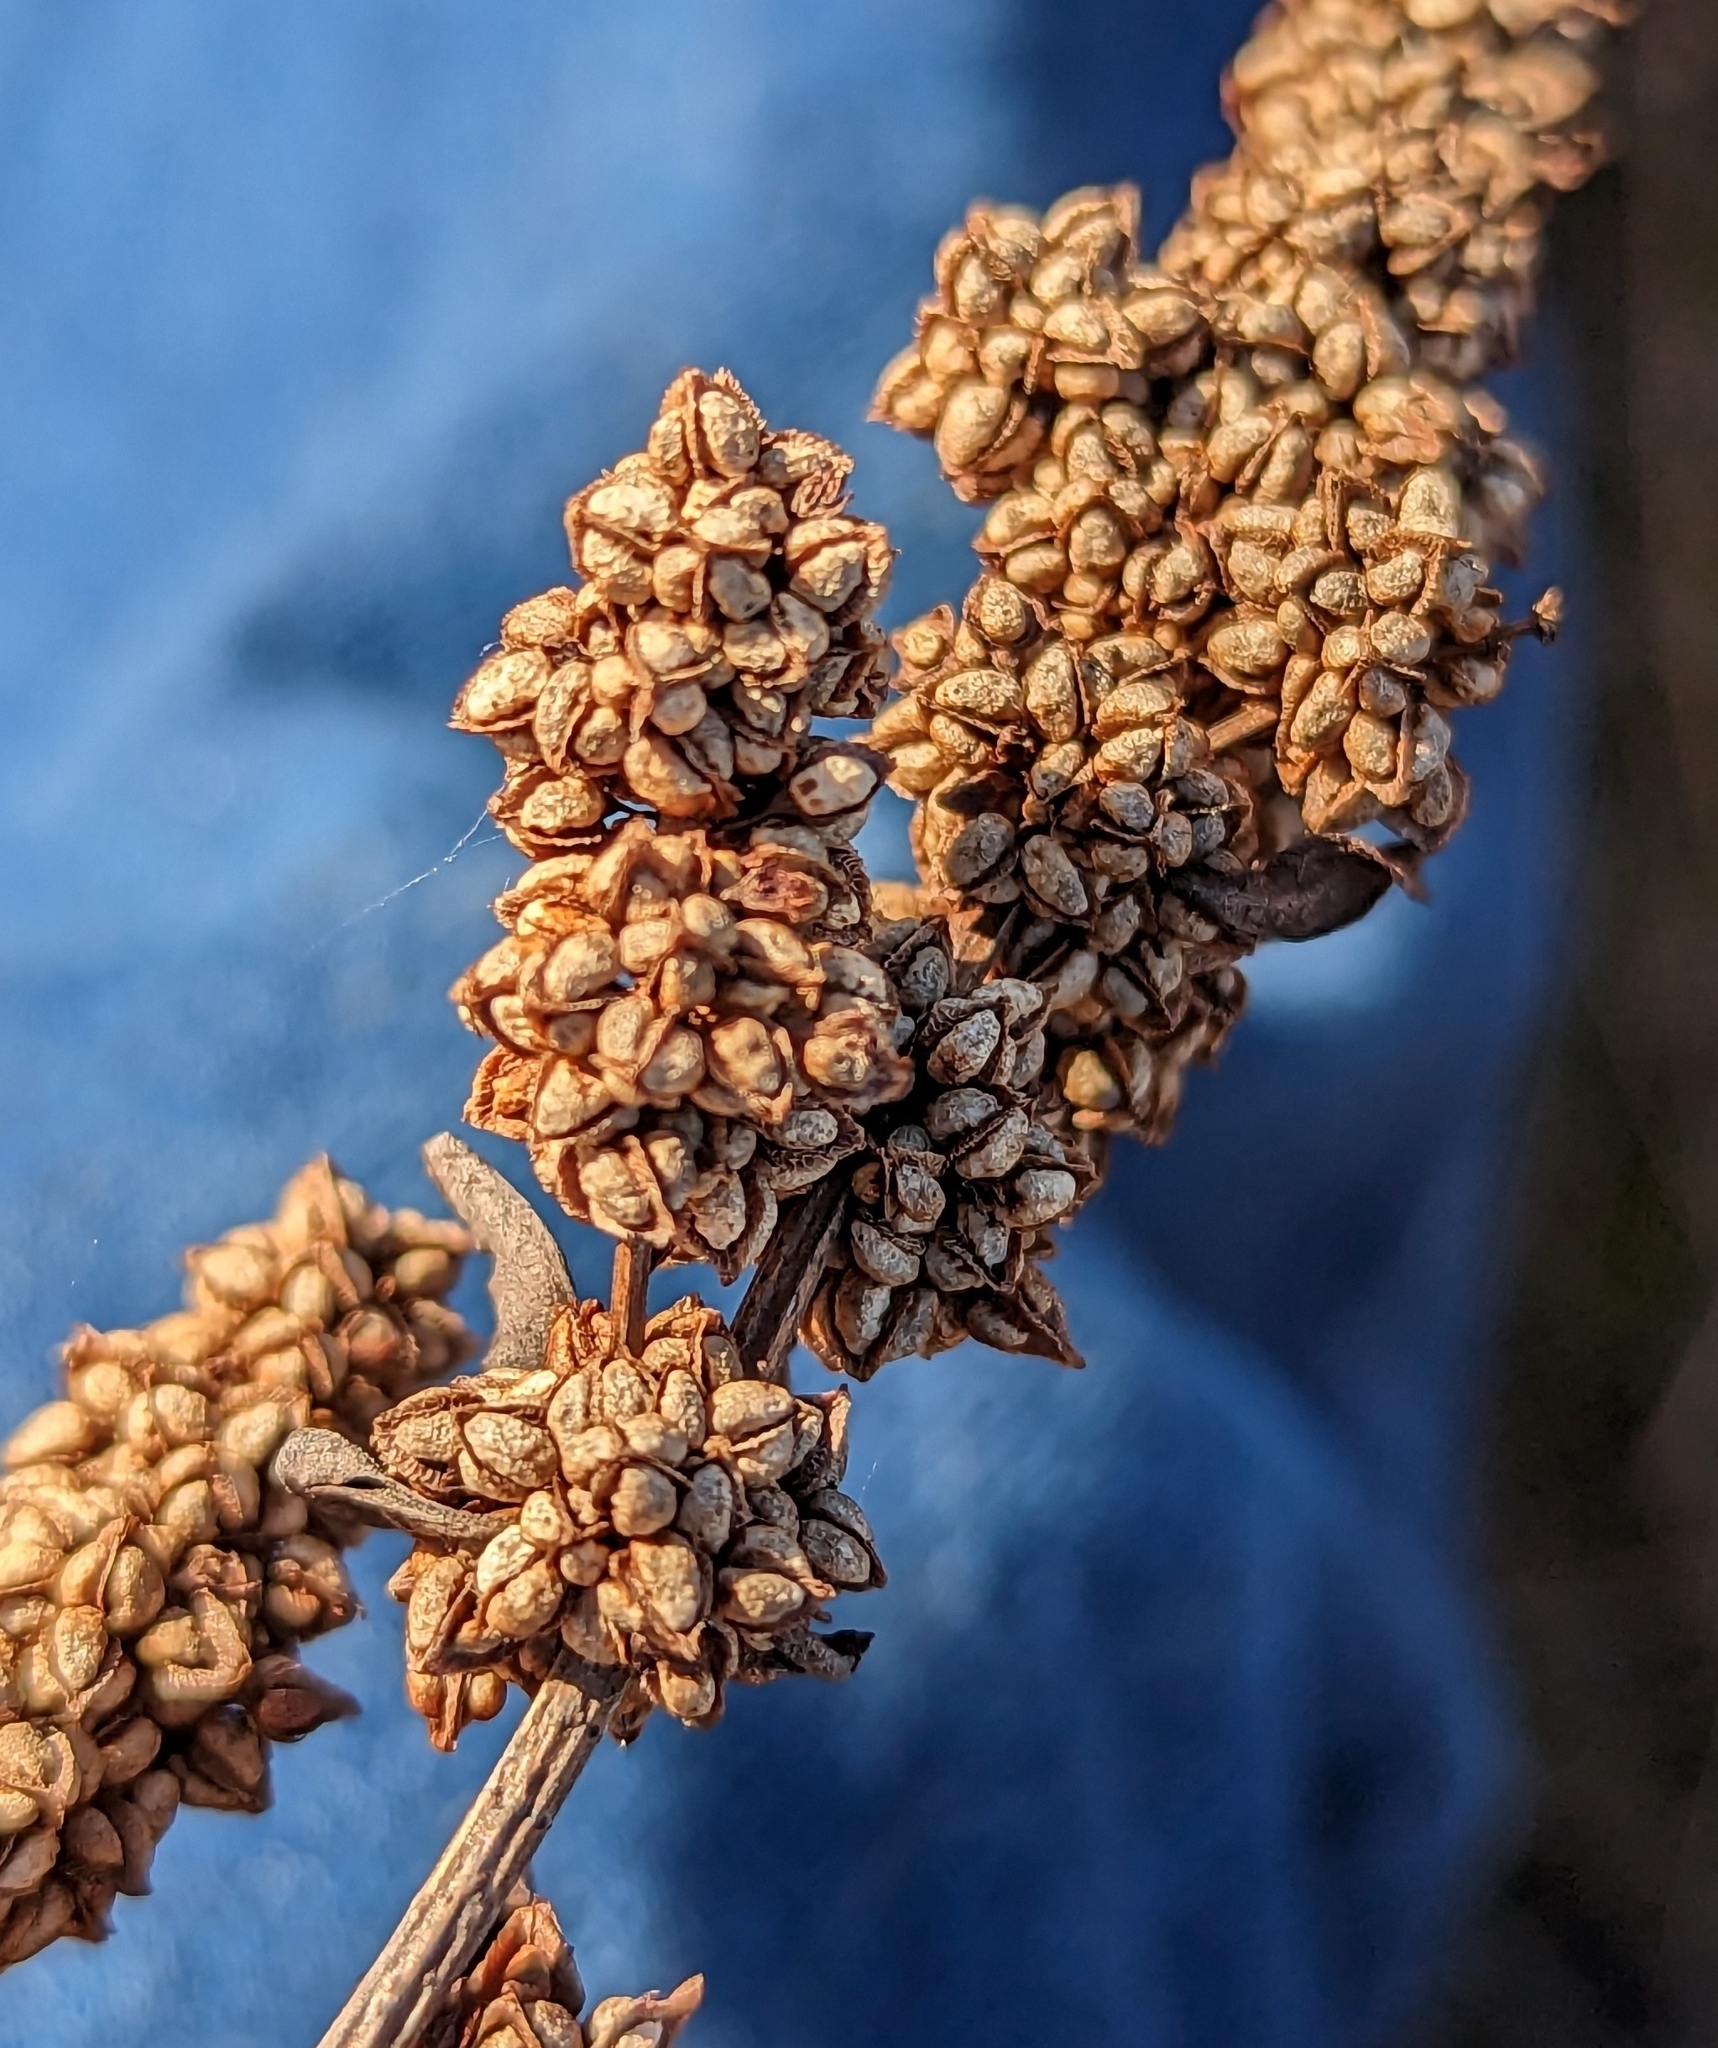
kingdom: Plantae
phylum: Tracheophyta
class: Magnoliopsida
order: Caryophyllales
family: Polygonaceae
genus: Rumex
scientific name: Rumex triangulivalvis
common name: Triangular-valve dock
